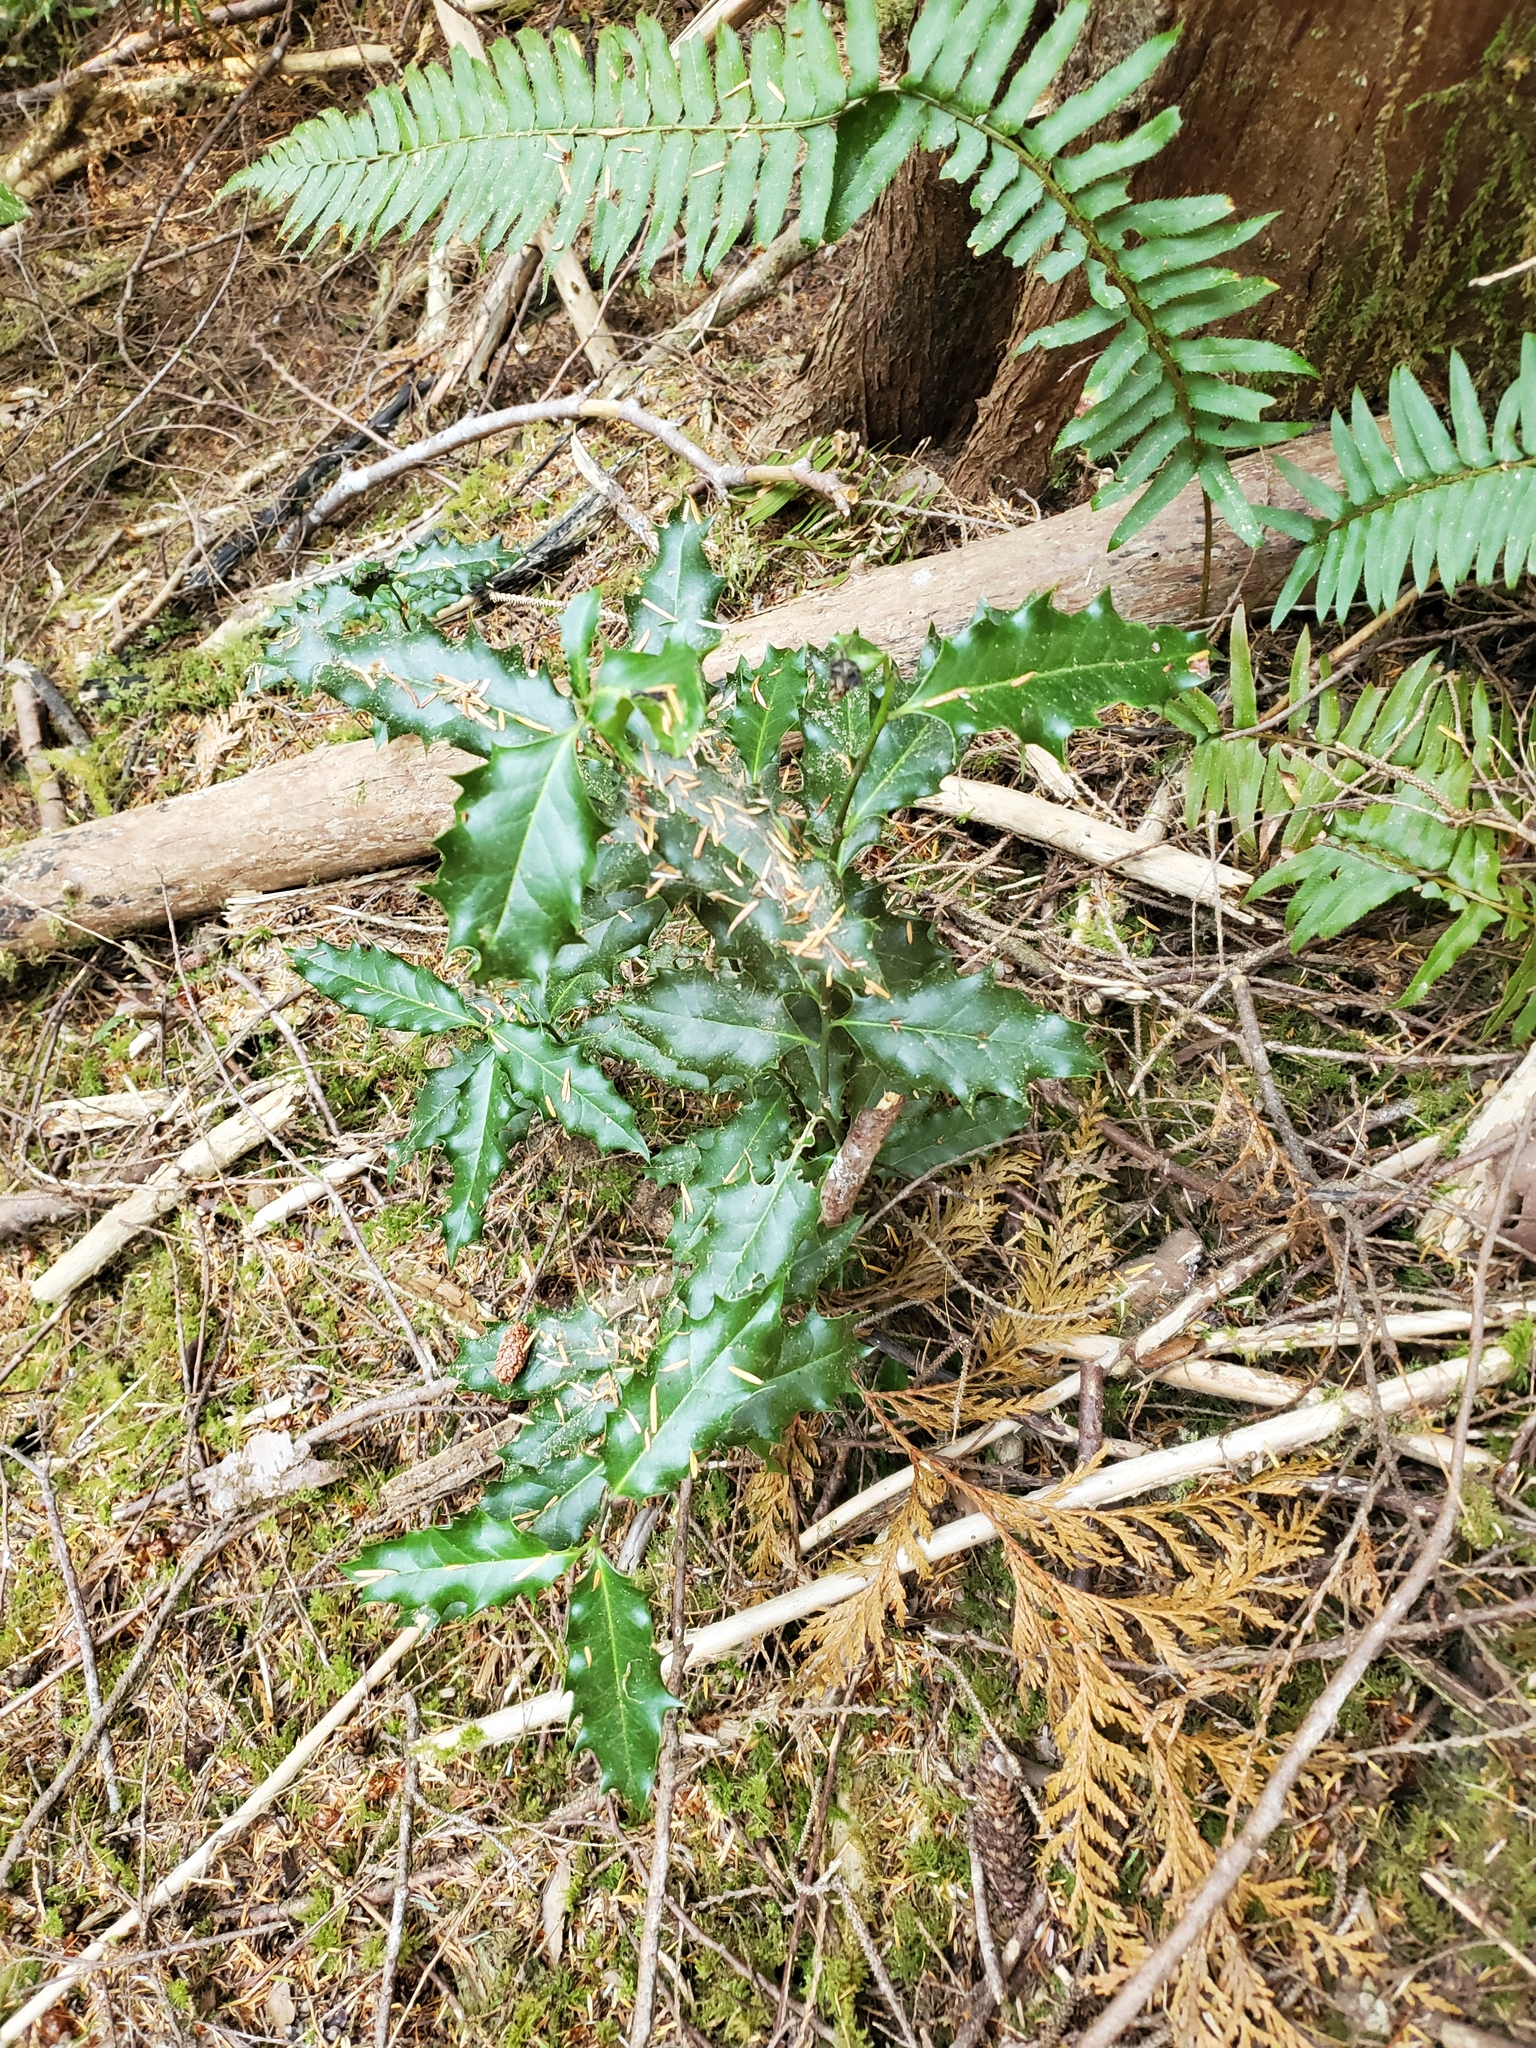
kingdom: Plantae
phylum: Tracheophyta
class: Magnoliopsida
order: Aquifoliales
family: Aquifoliaceae
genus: Ilex
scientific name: Ilex aquifolium
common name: English holly
